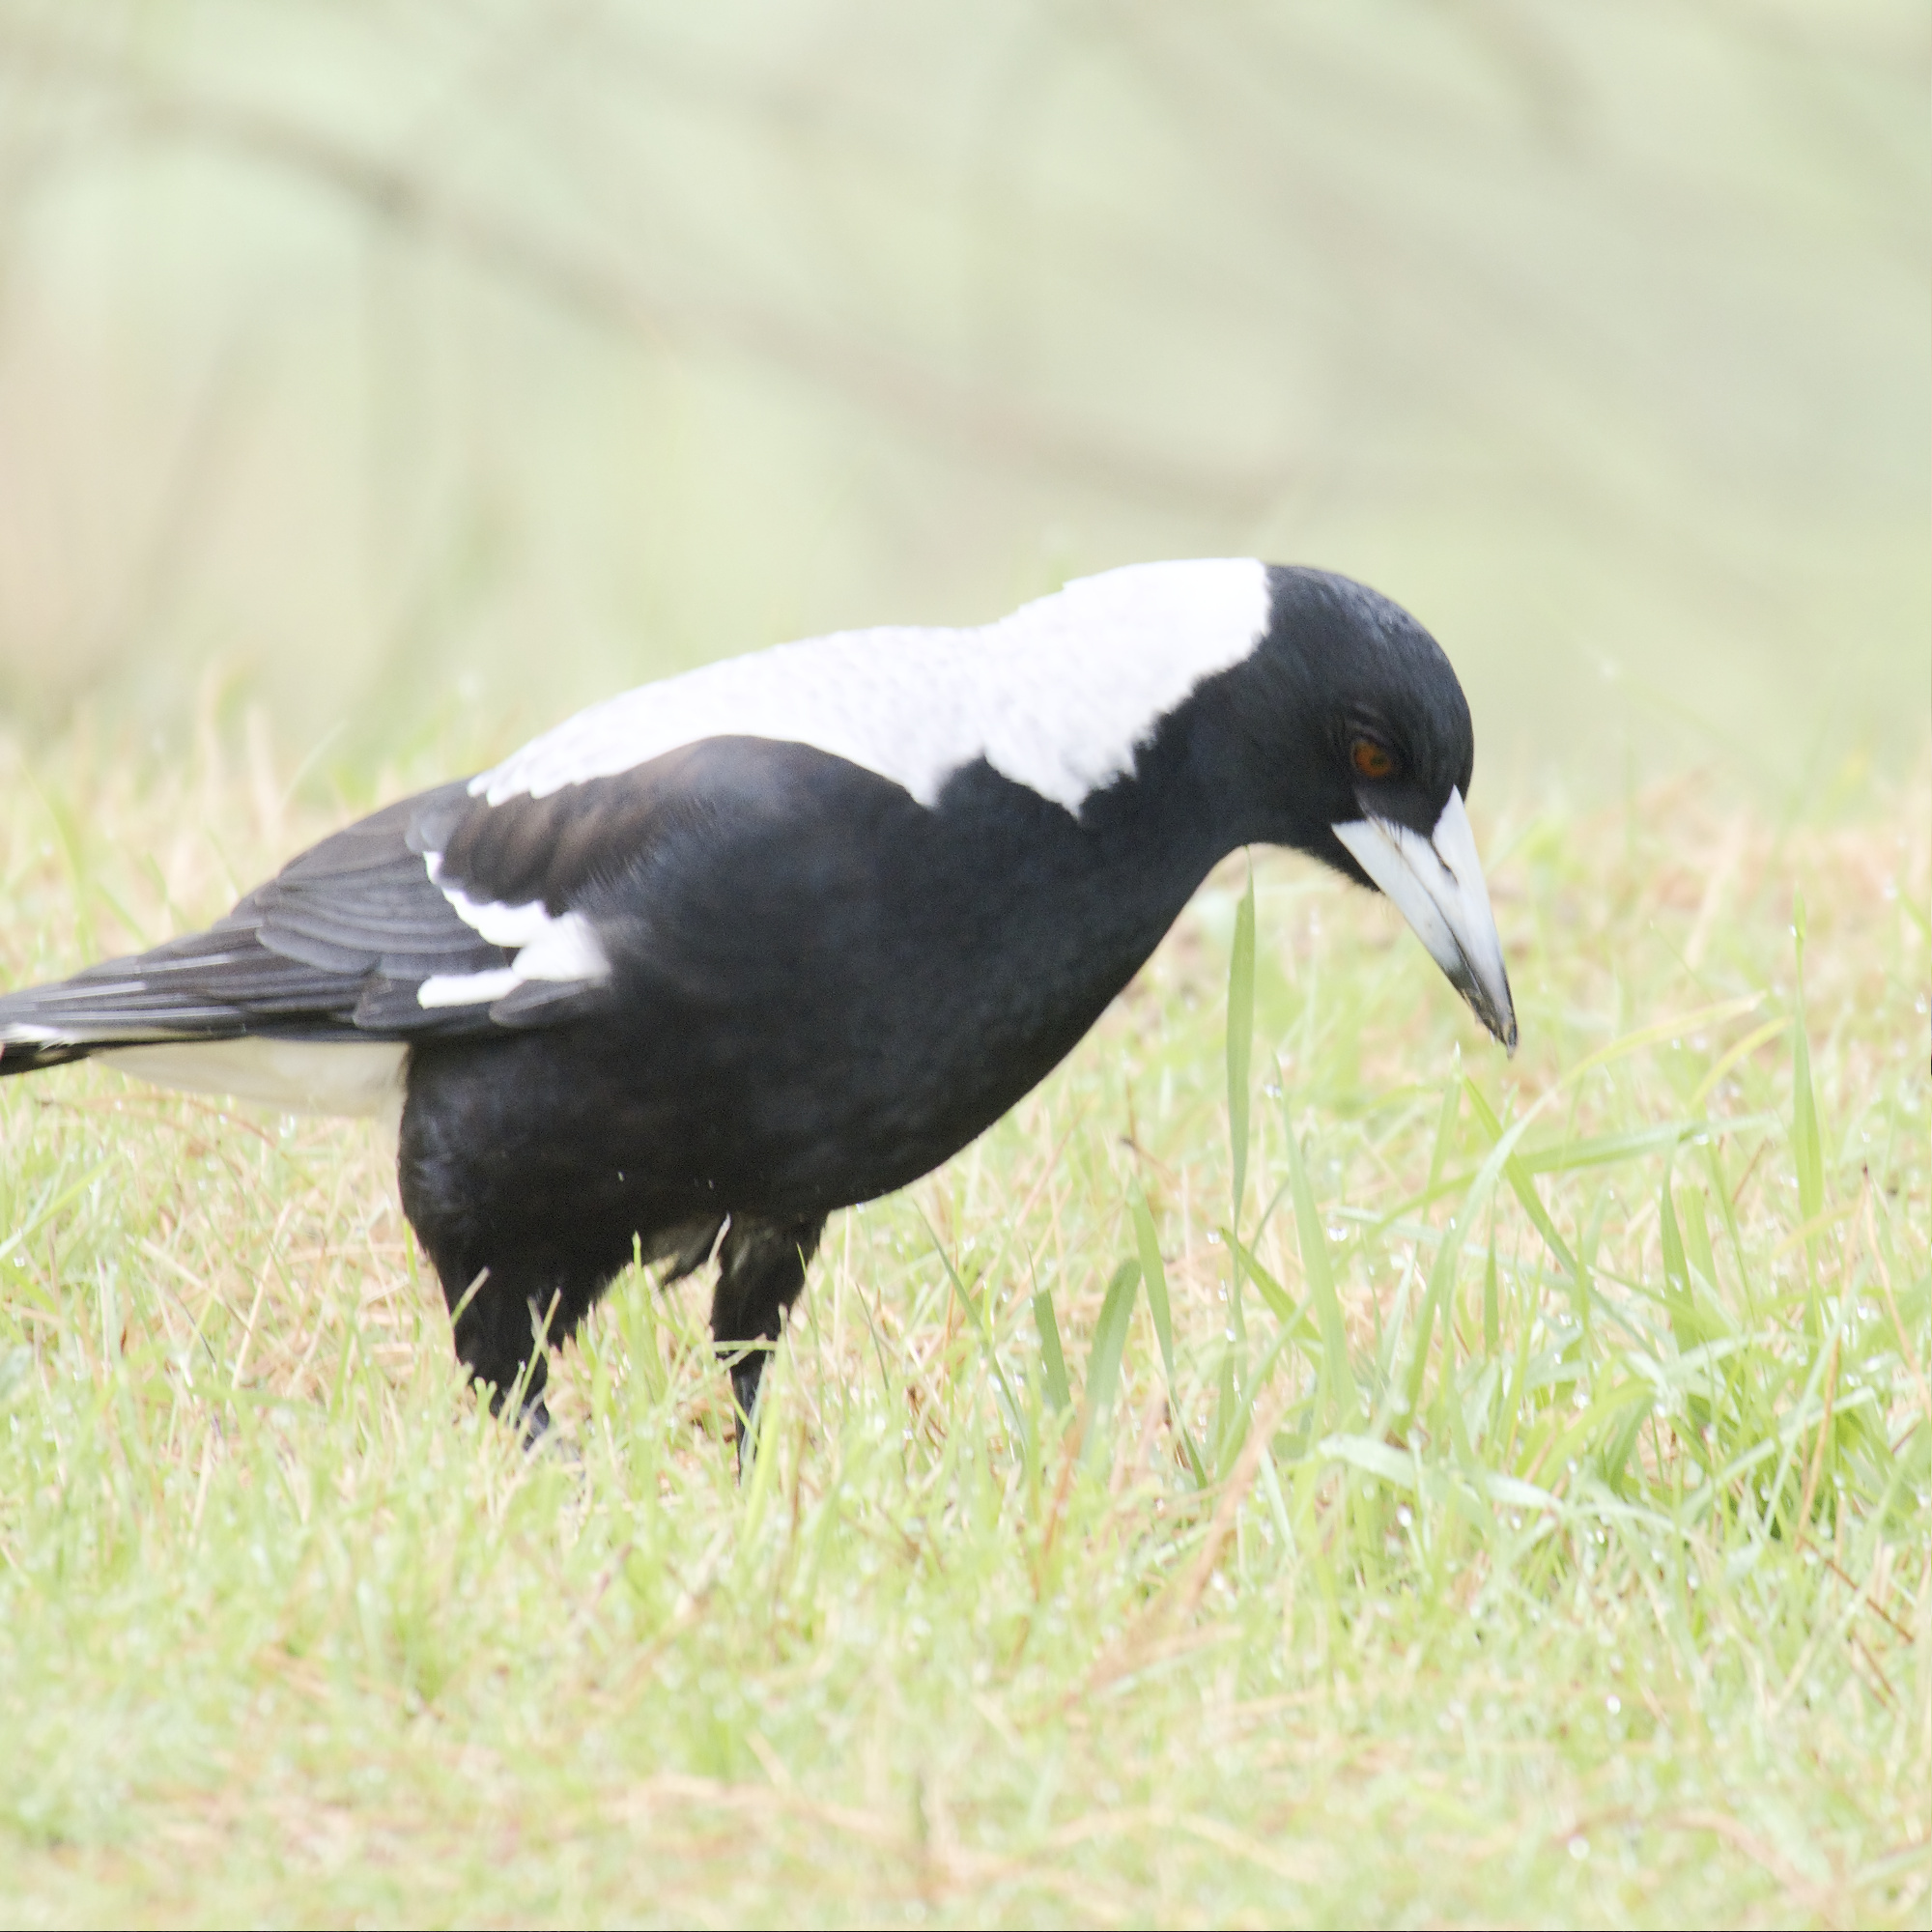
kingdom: Animalia
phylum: Chordata
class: Aves
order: Passeriformes
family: Cracticidae
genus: Gymnorhina
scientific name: Gymnorhina tibicen
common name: Australian magpie
